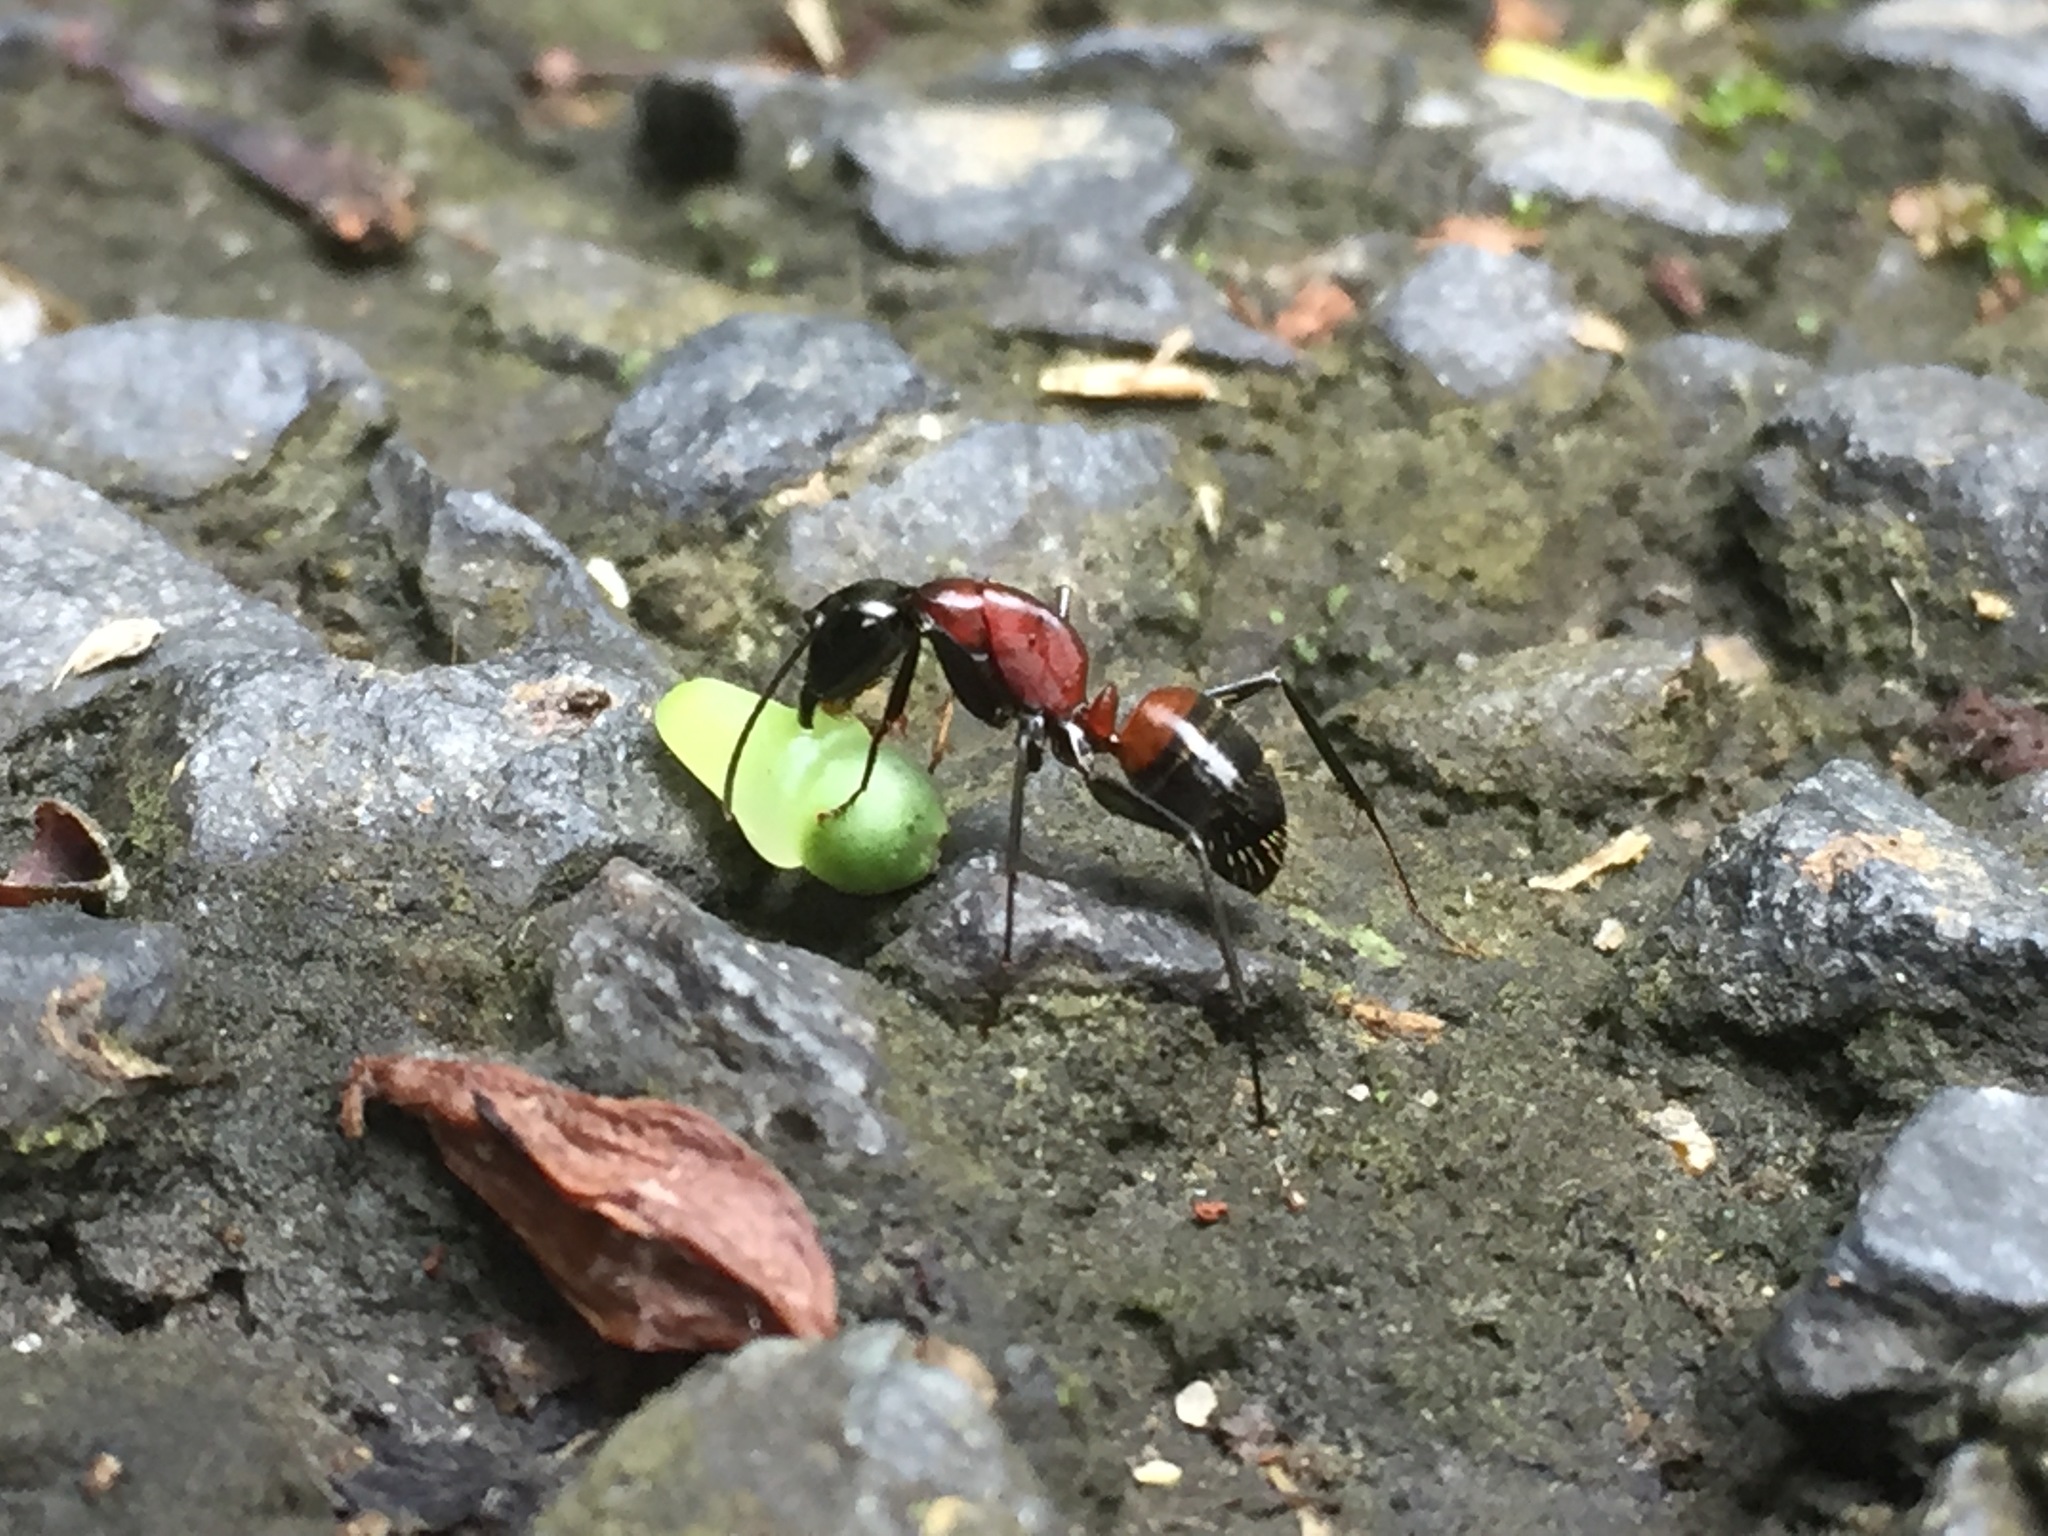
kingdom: Animalia
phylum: Arthropoda
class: Insecta
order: Hymenoptera
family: Formicidae
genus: Camponotus
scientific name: Camponotus obscuripes
